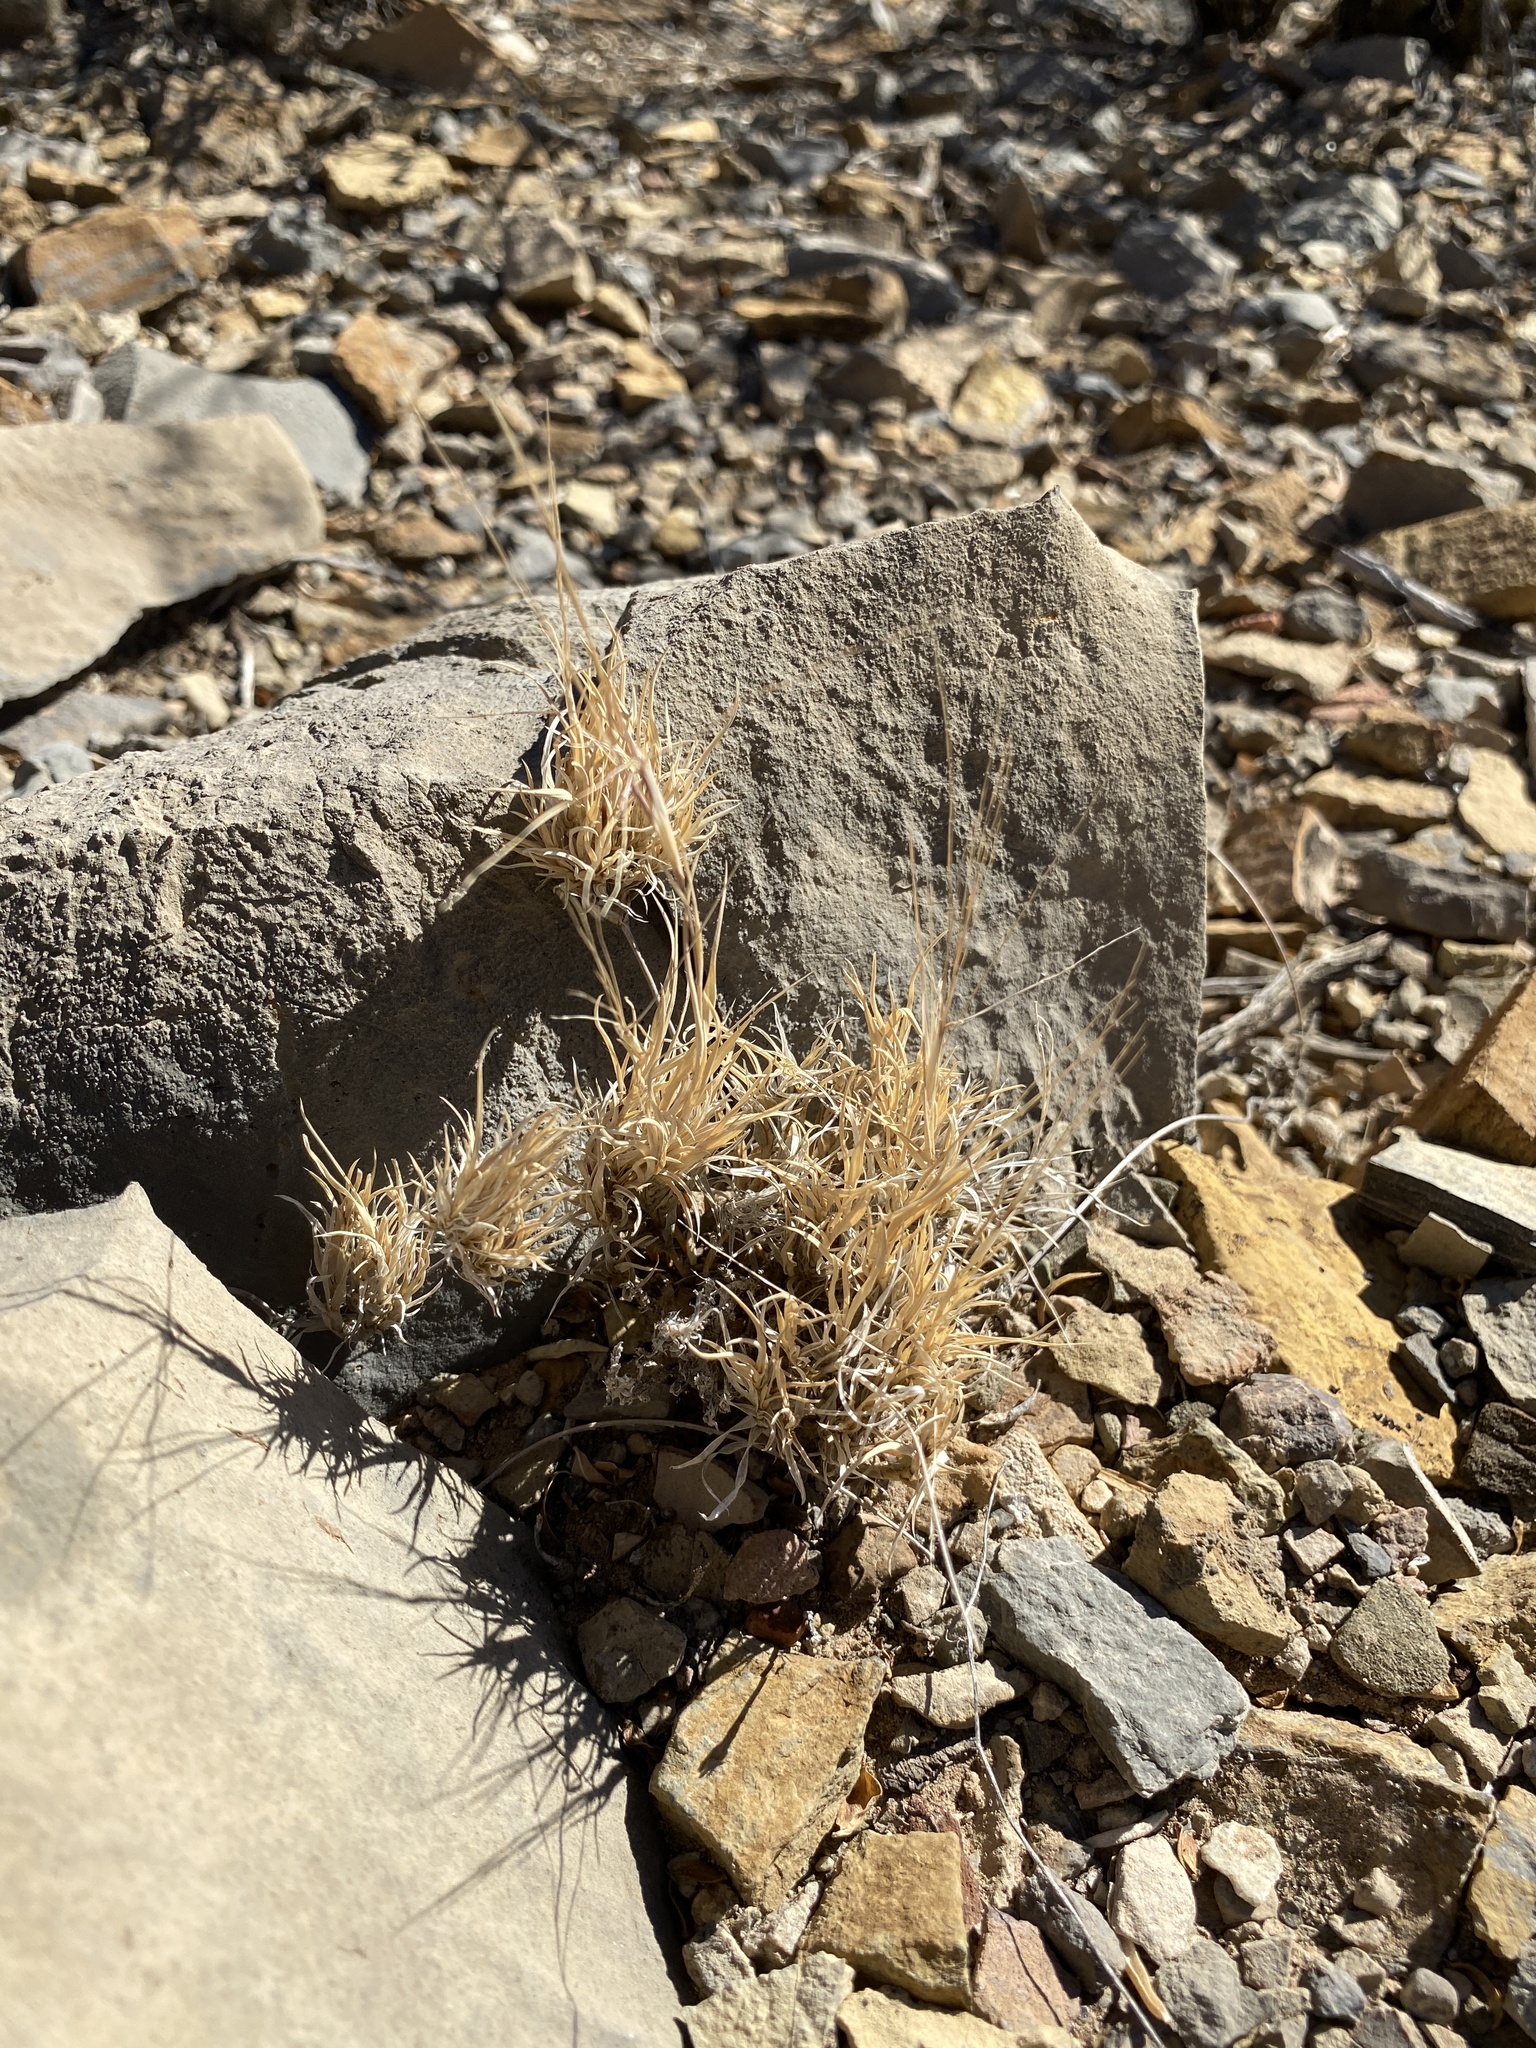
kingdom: Plantae
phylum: Tracheophyta
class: Liliopsida
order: Poales
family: Poaceae
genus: Dasyochloa
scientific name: Dasyochloa pulchella
